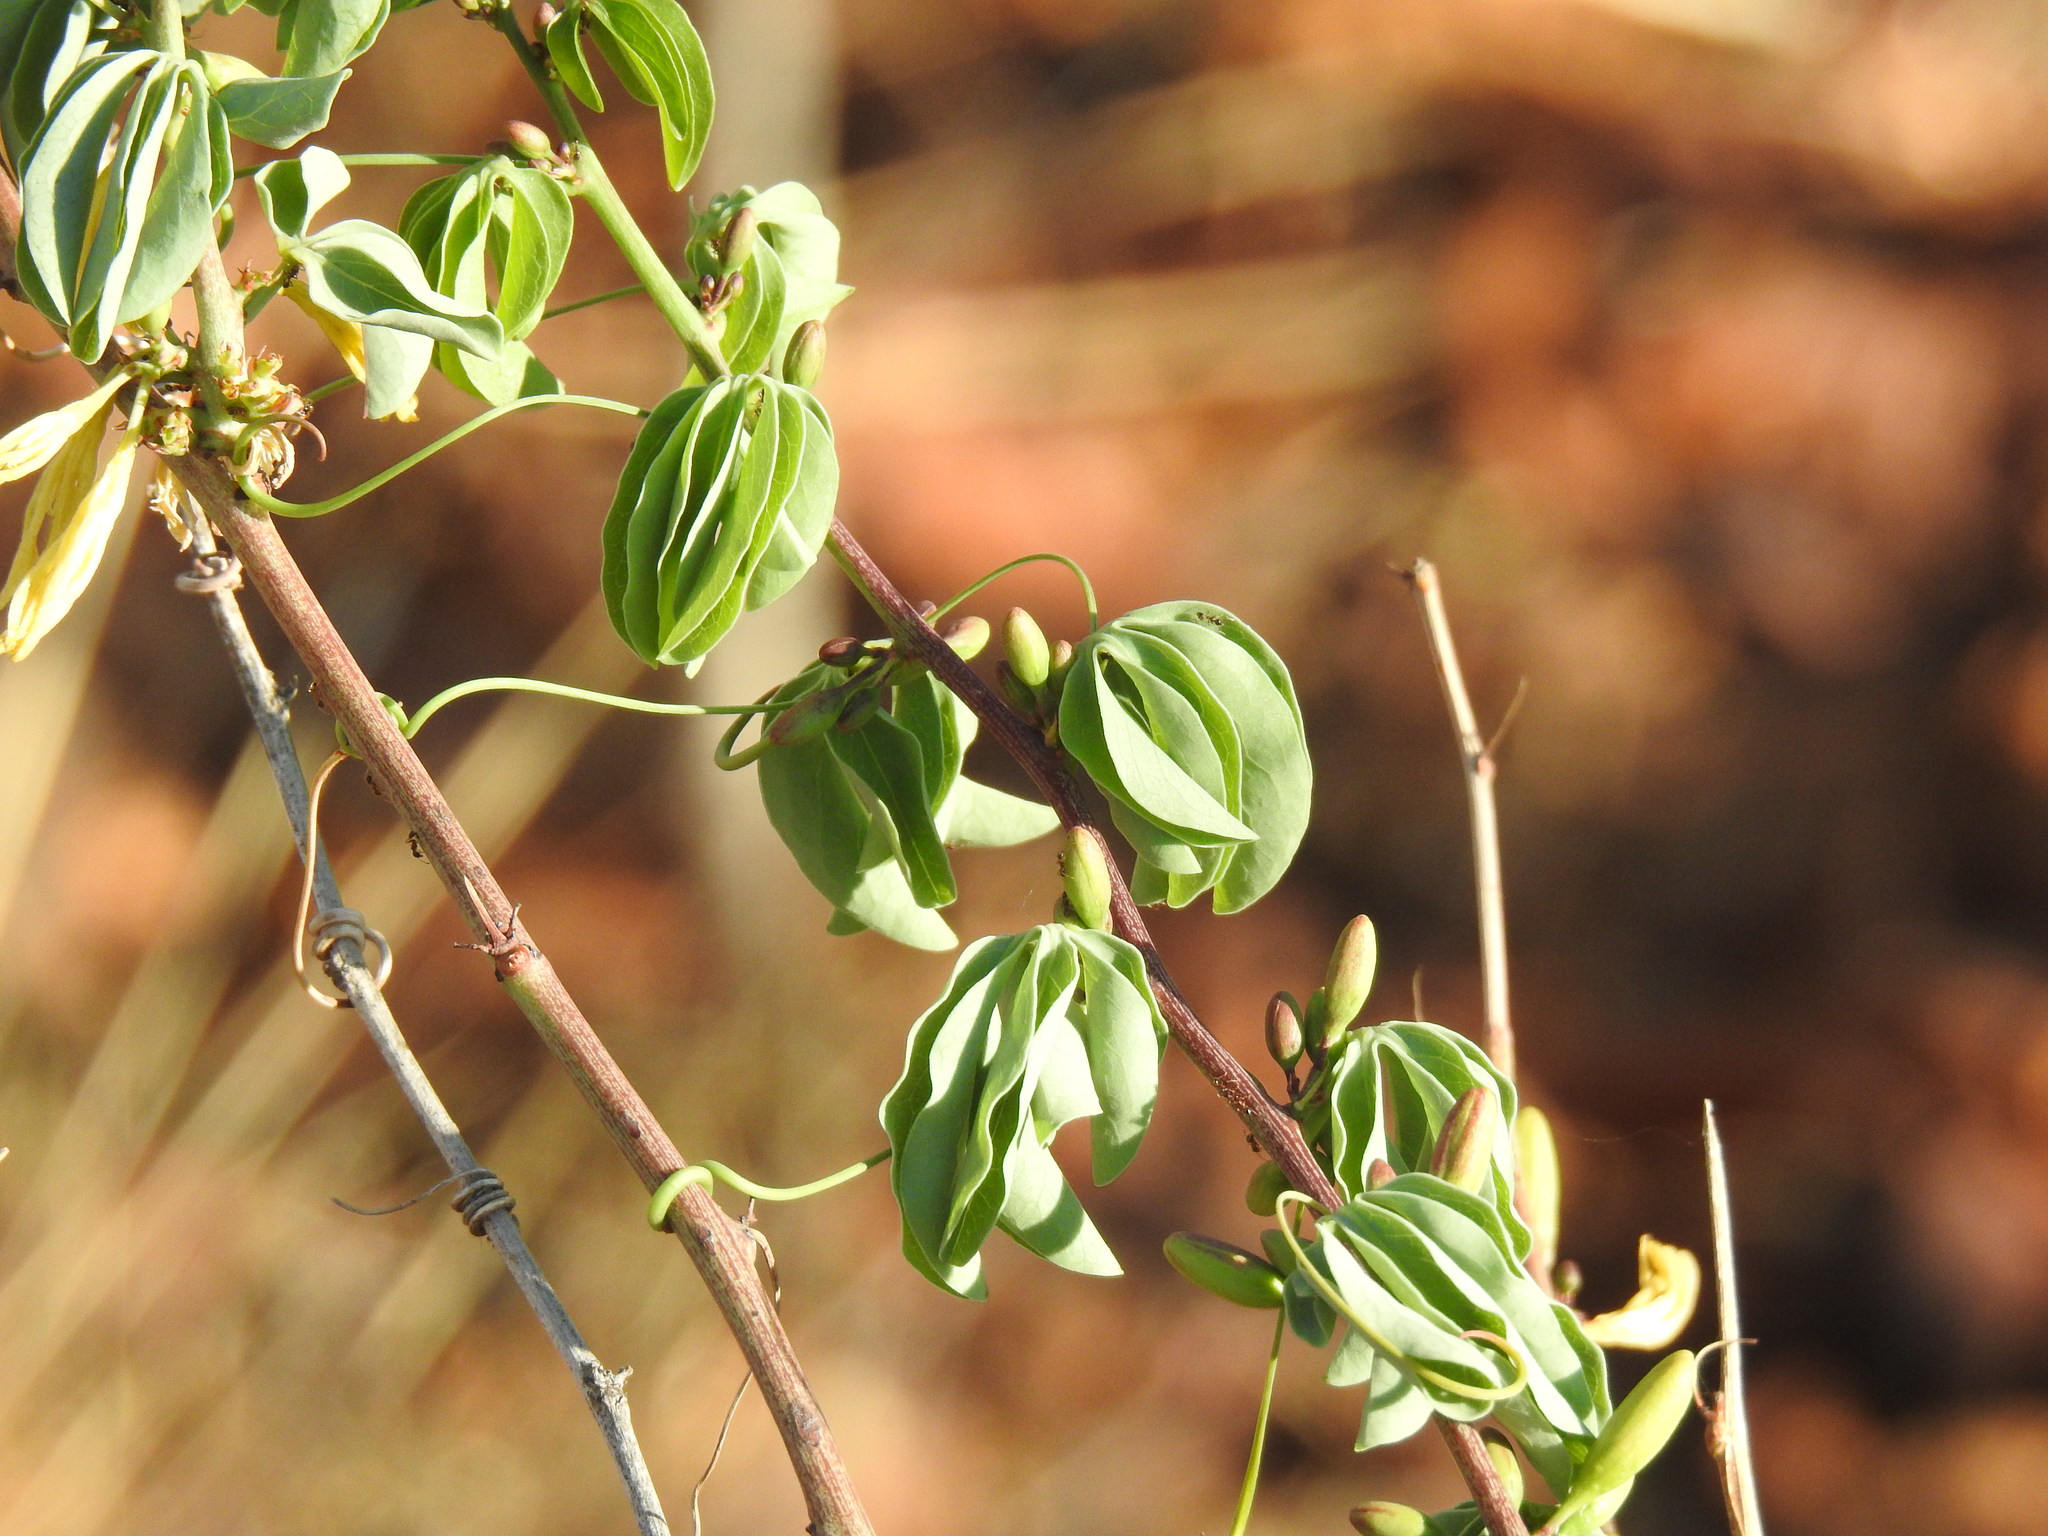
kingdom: Plantae
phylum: Tracheophyta
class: Magnoliopsida
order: Malpighiales
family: Passifloraceae
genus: Adenia
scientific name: Adenia glauca
